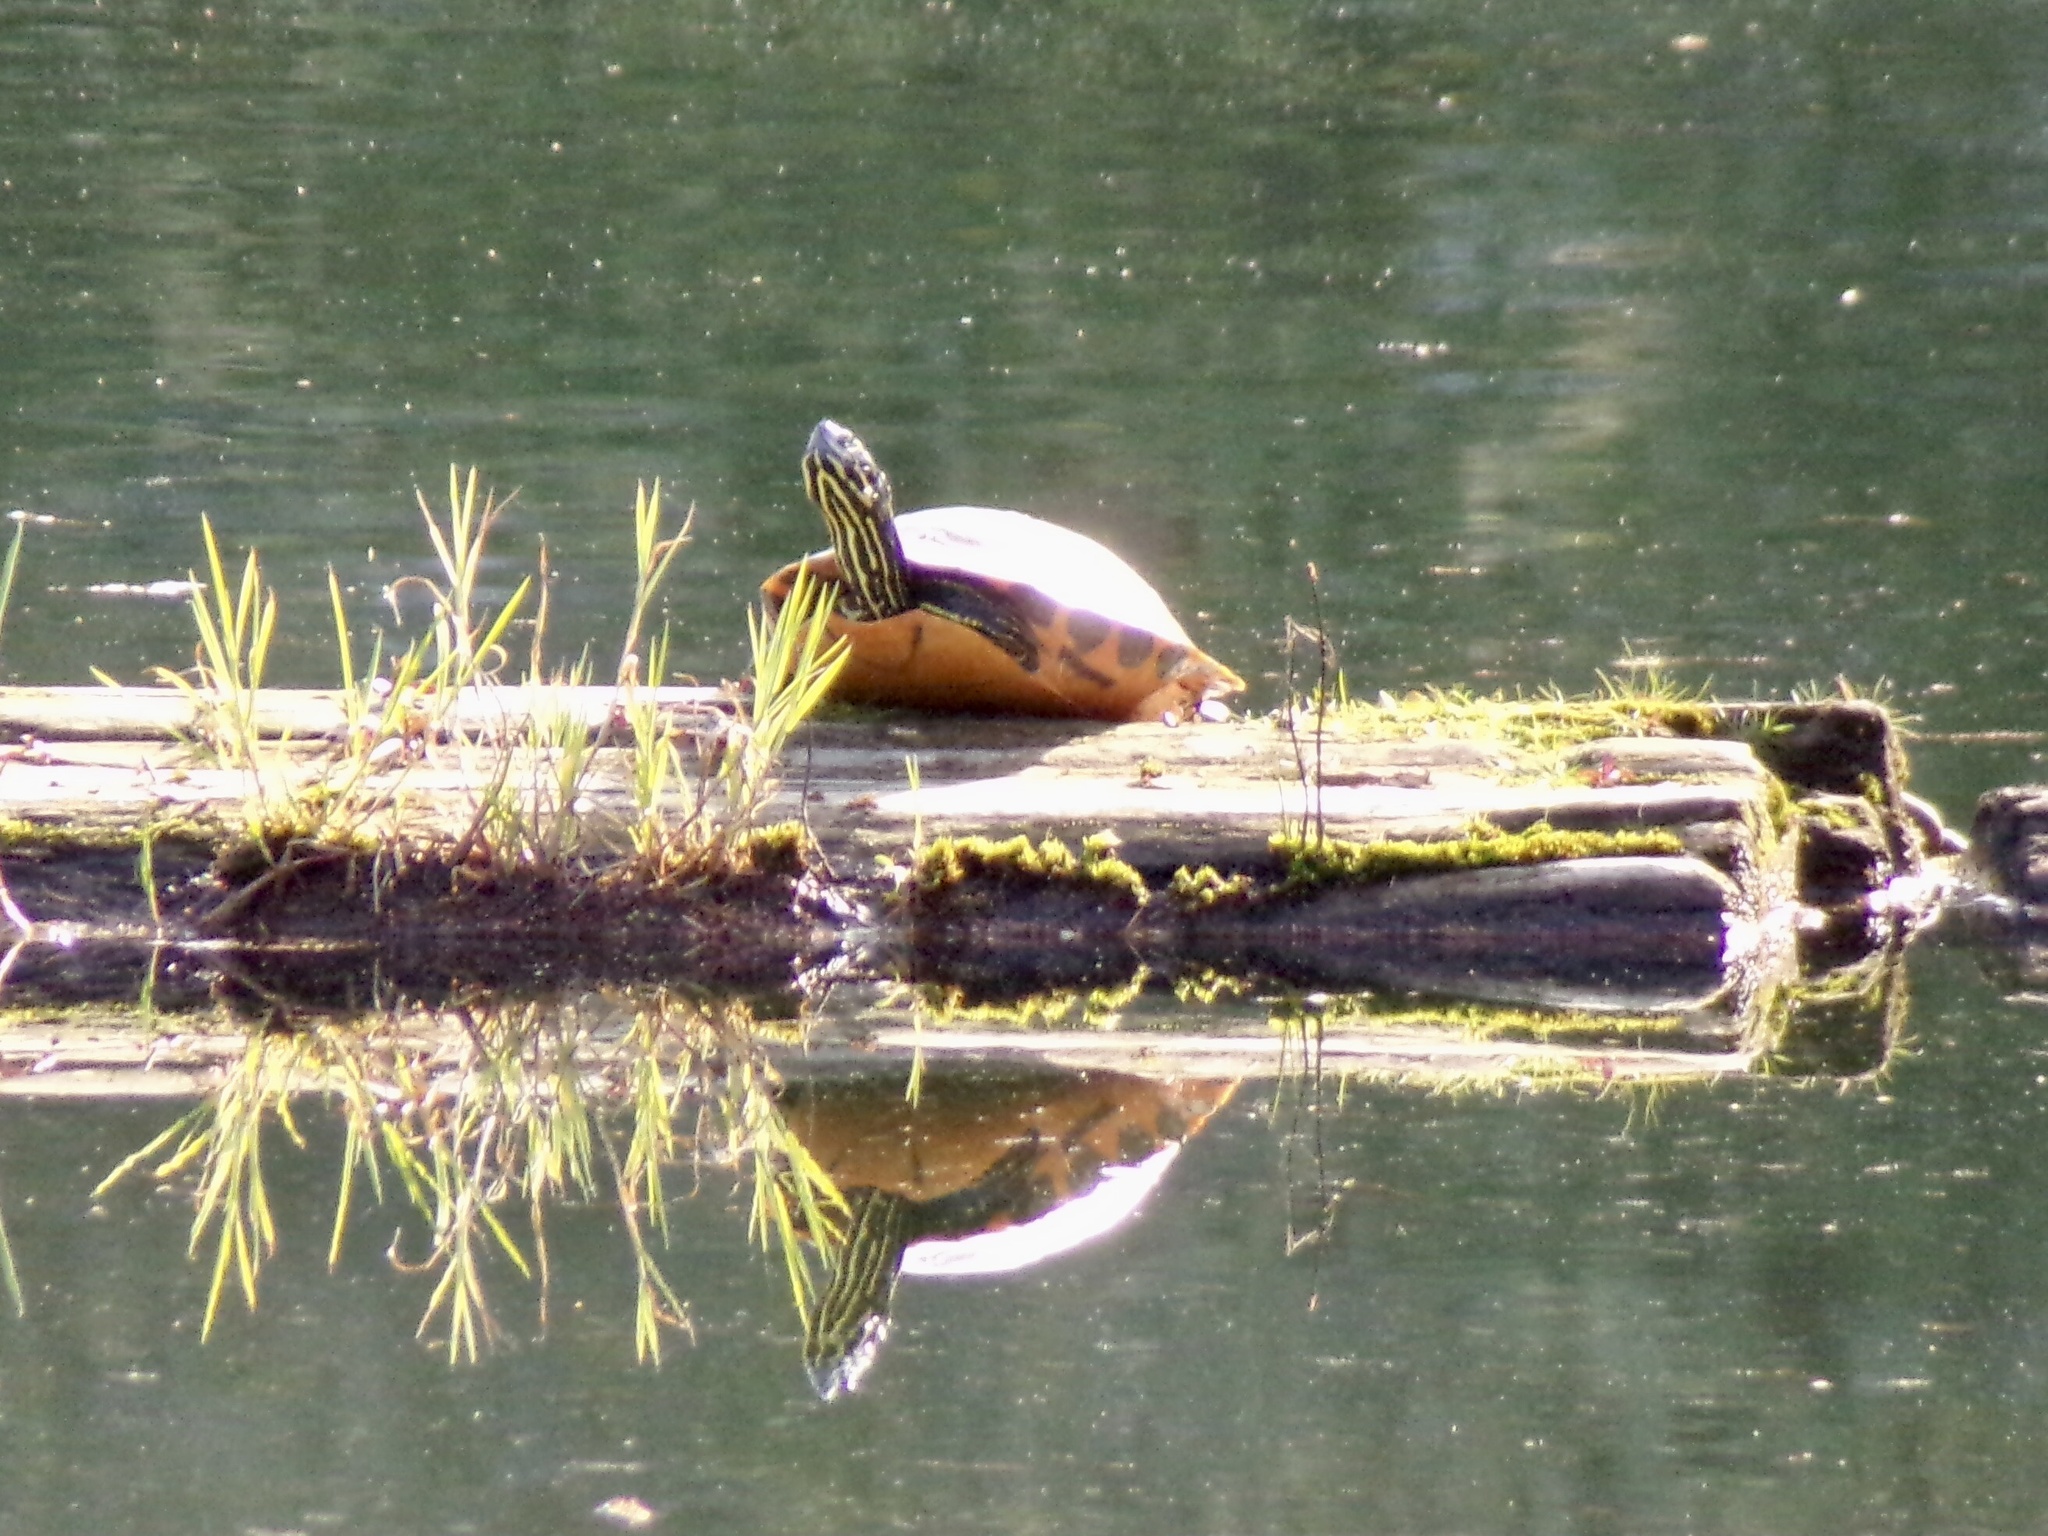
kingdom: Animalia
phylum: Chordata
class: Testudines
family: Emydidae
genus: Pseudemys
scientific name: Pseudemys concinna
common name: Eastern river cooter
